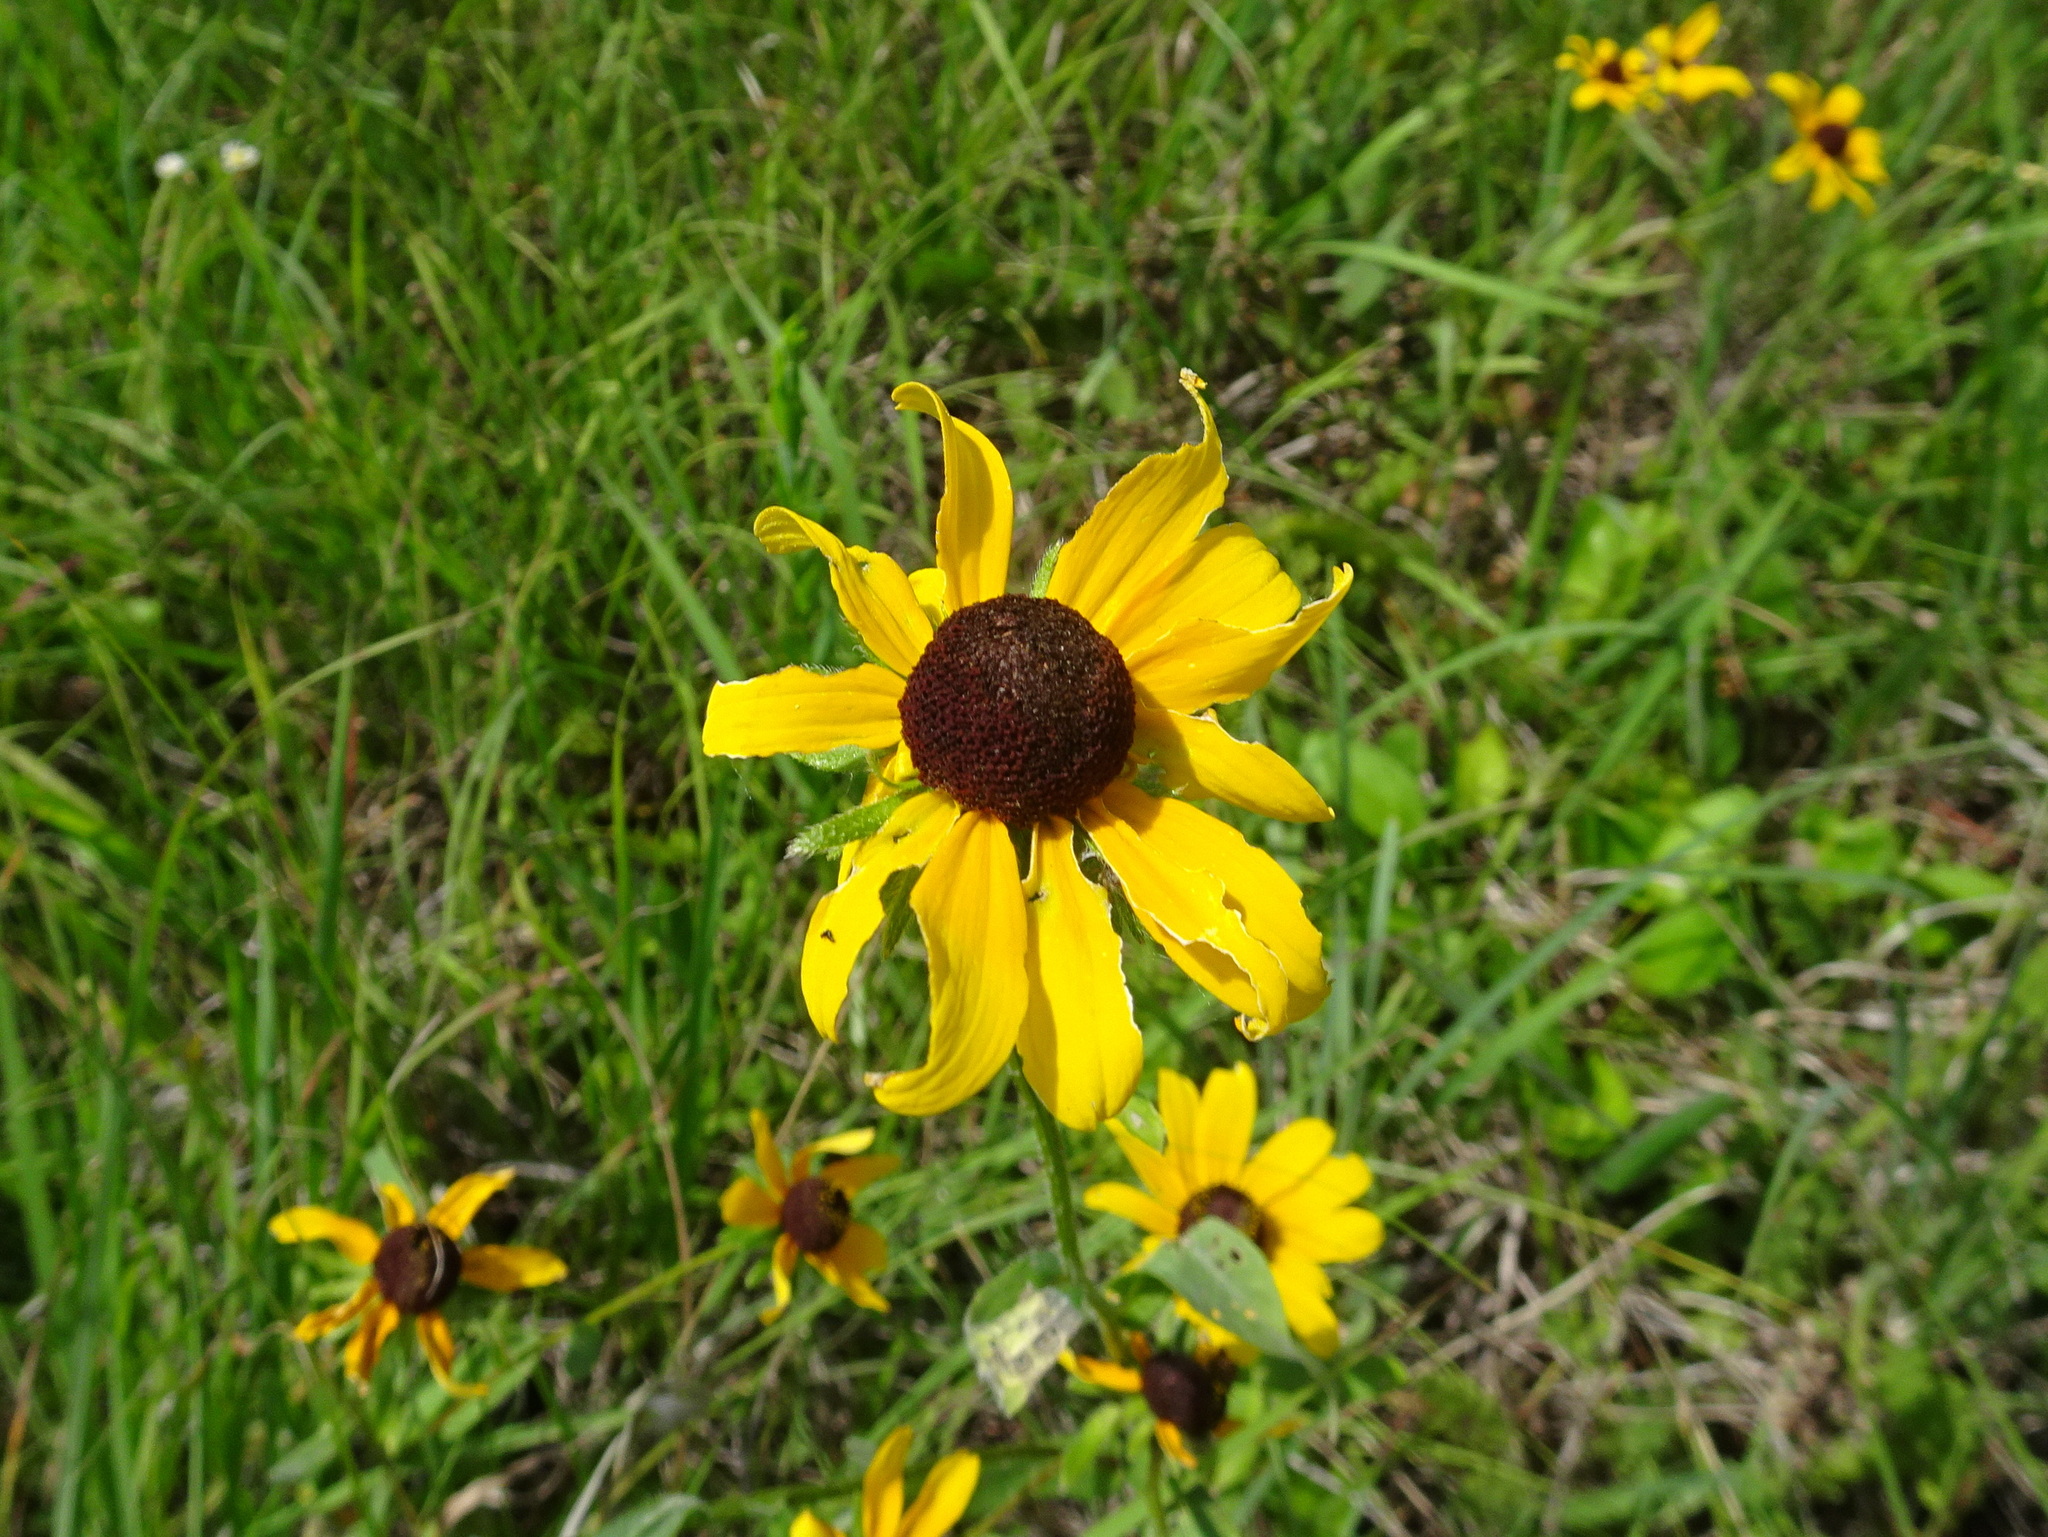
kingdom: Plantae
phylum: Tracheophyta
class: Magnoliopsida
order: Asterales
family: Asteraceae
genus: Rudbeckia
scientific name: Rudbeckia hirta
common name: Black-eyed-susan
